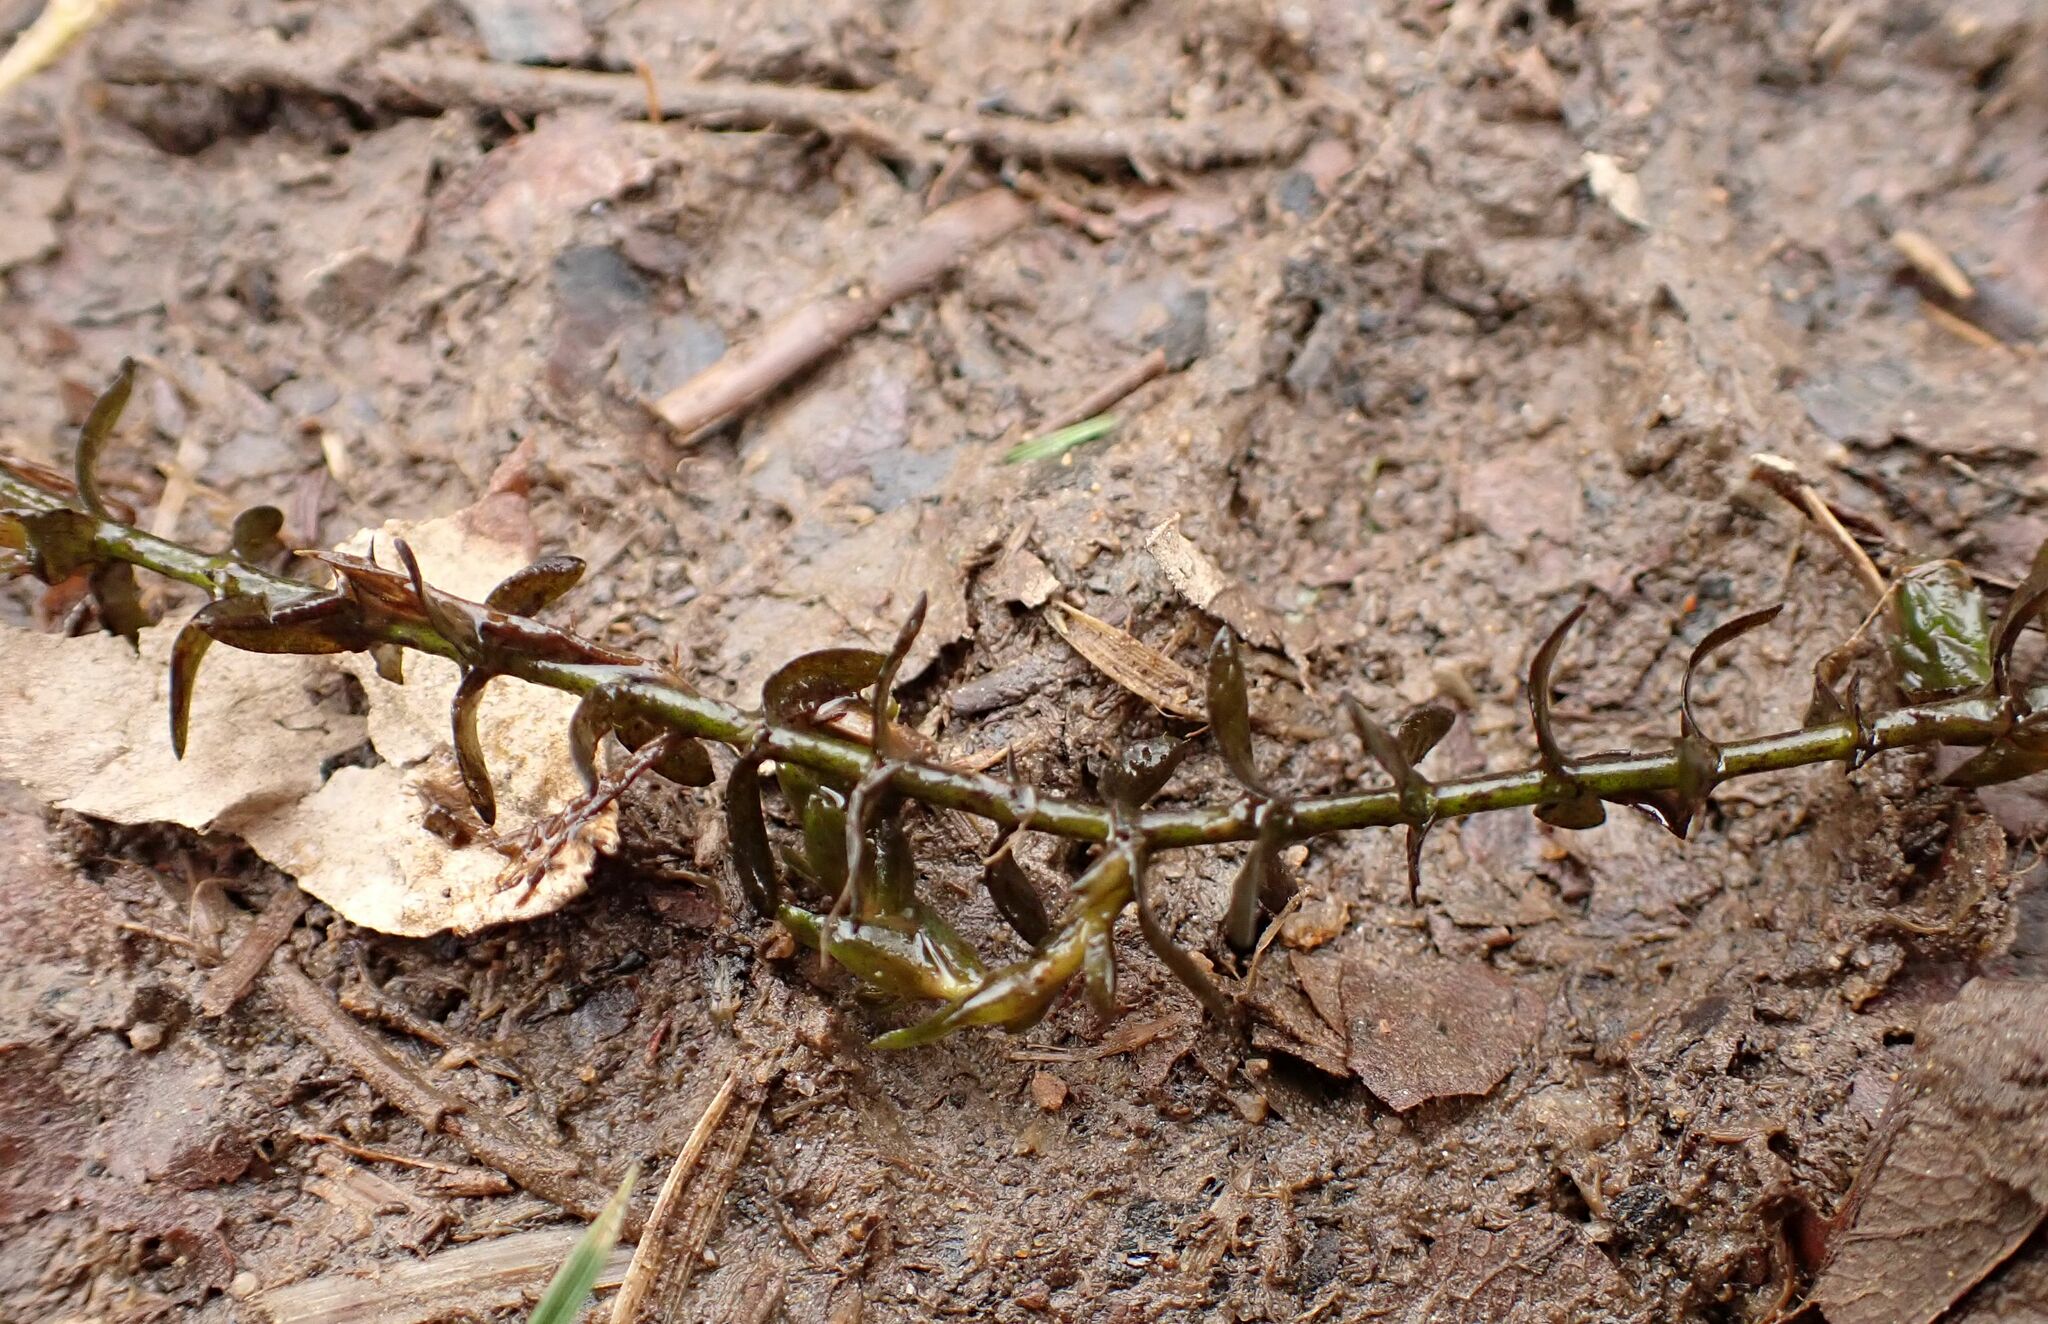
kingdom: Plantae
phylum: Tracheophyta
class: Liliopsida
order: Alismatales
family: Hydrocharitaceae
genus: Elodea
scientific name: Elodea canadensis
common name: Canadian waterweed
